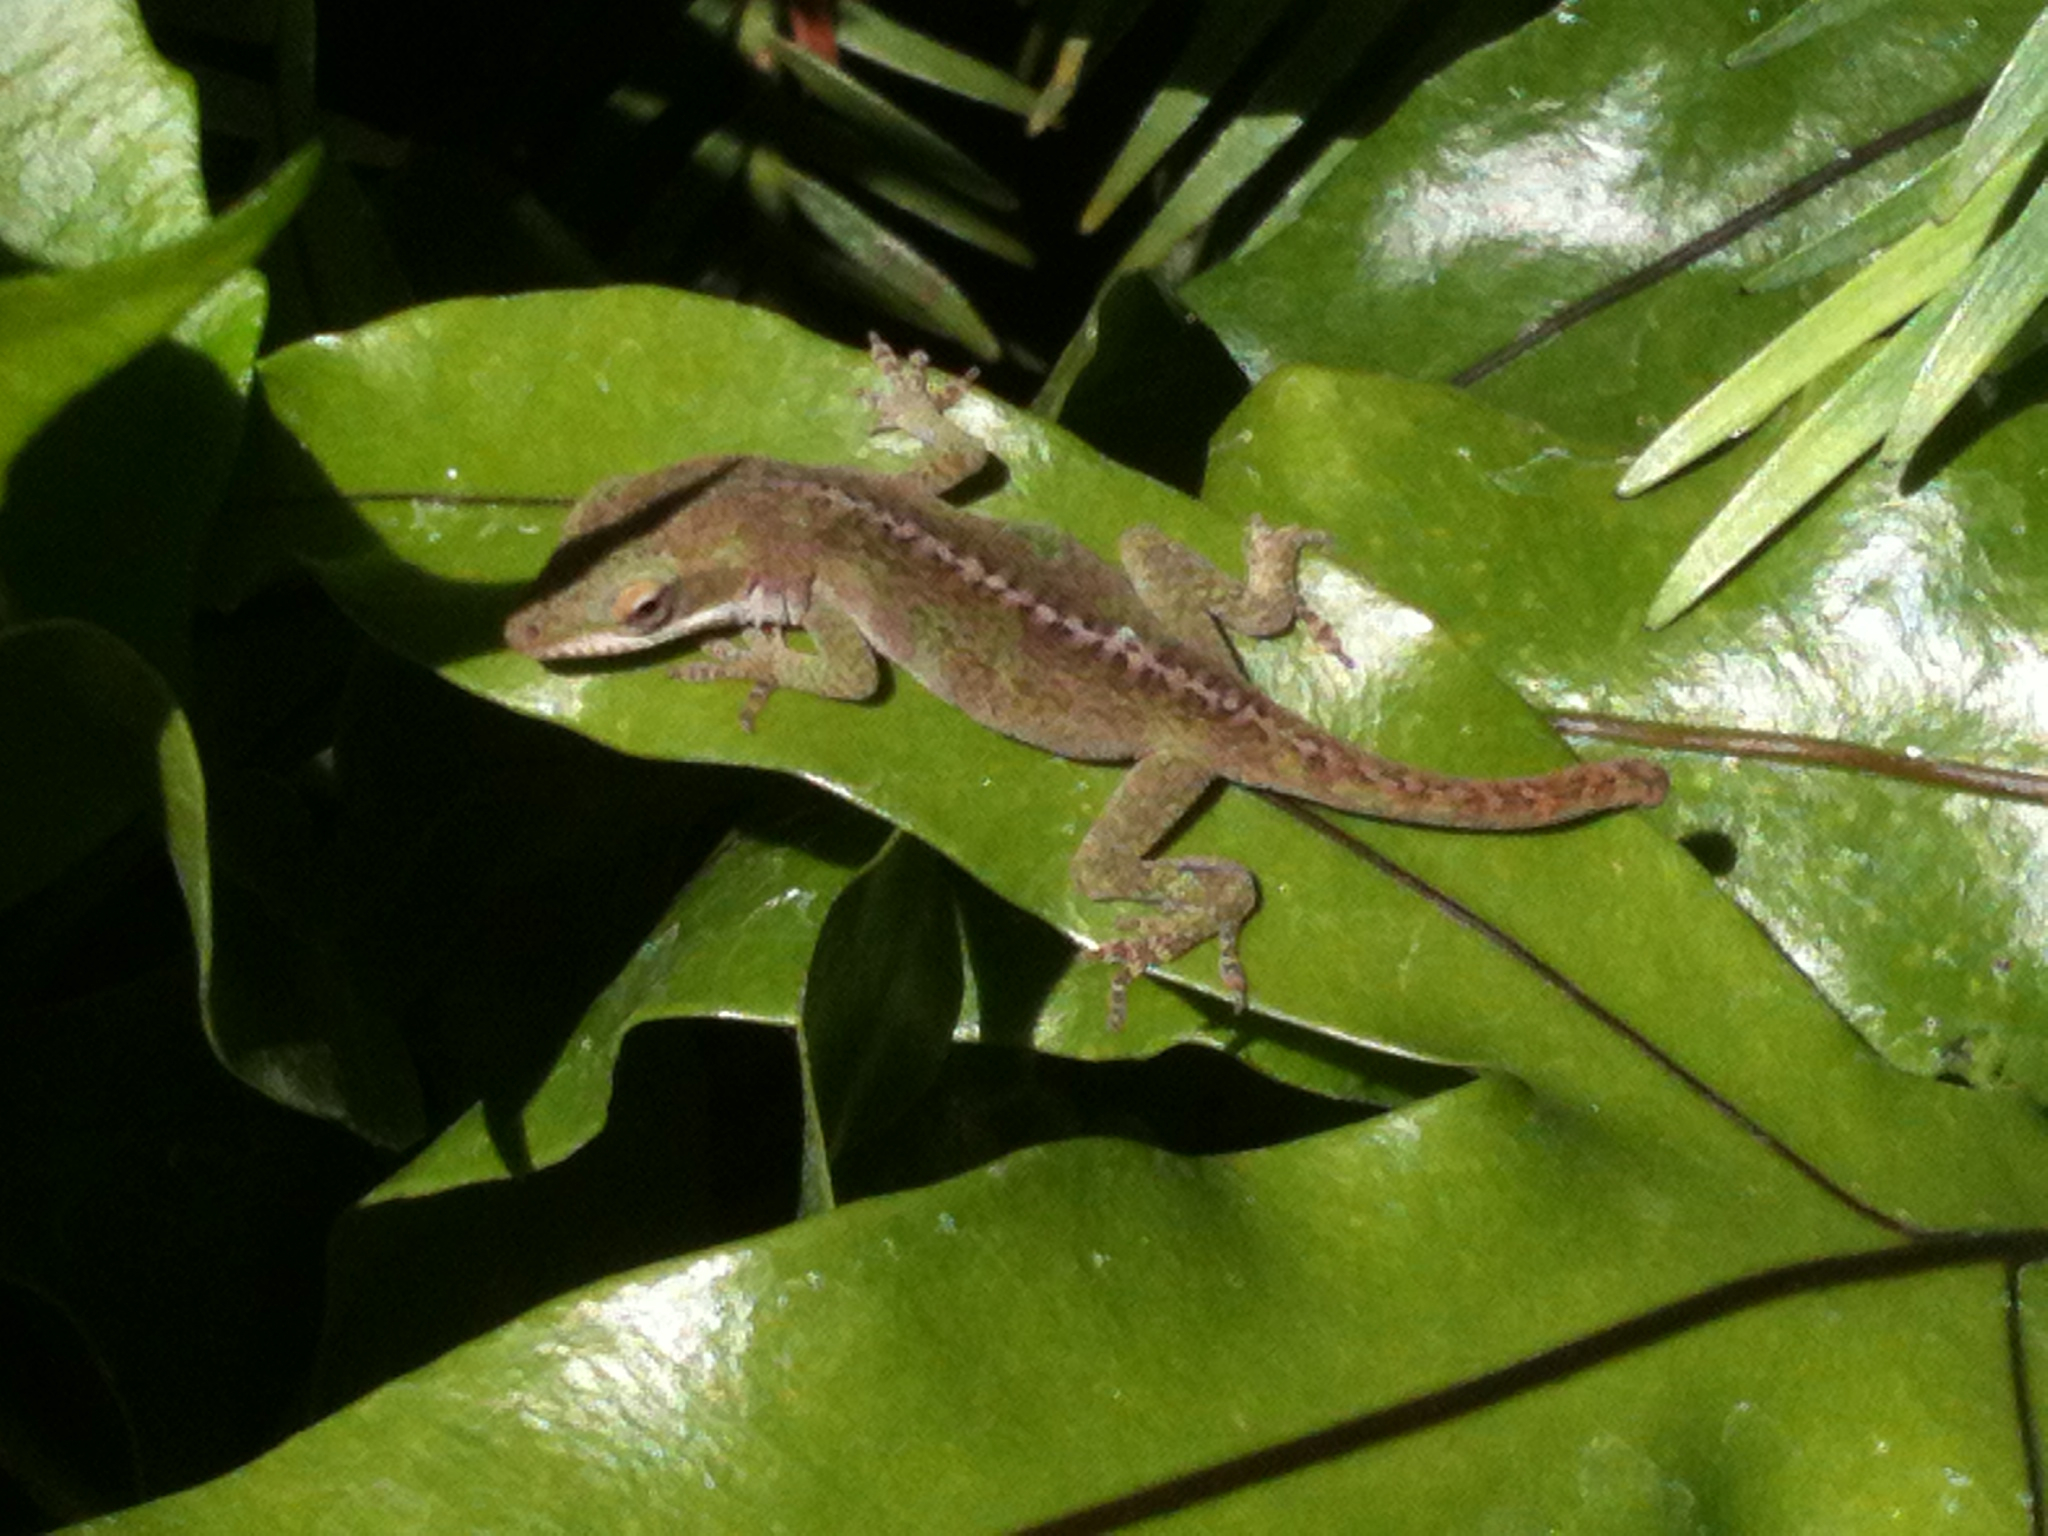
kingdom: Animalia
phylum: Chordata
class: Squamata
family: Dactyloidae
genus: Anolis
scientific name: Anolis carolinensis
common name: Green anole
